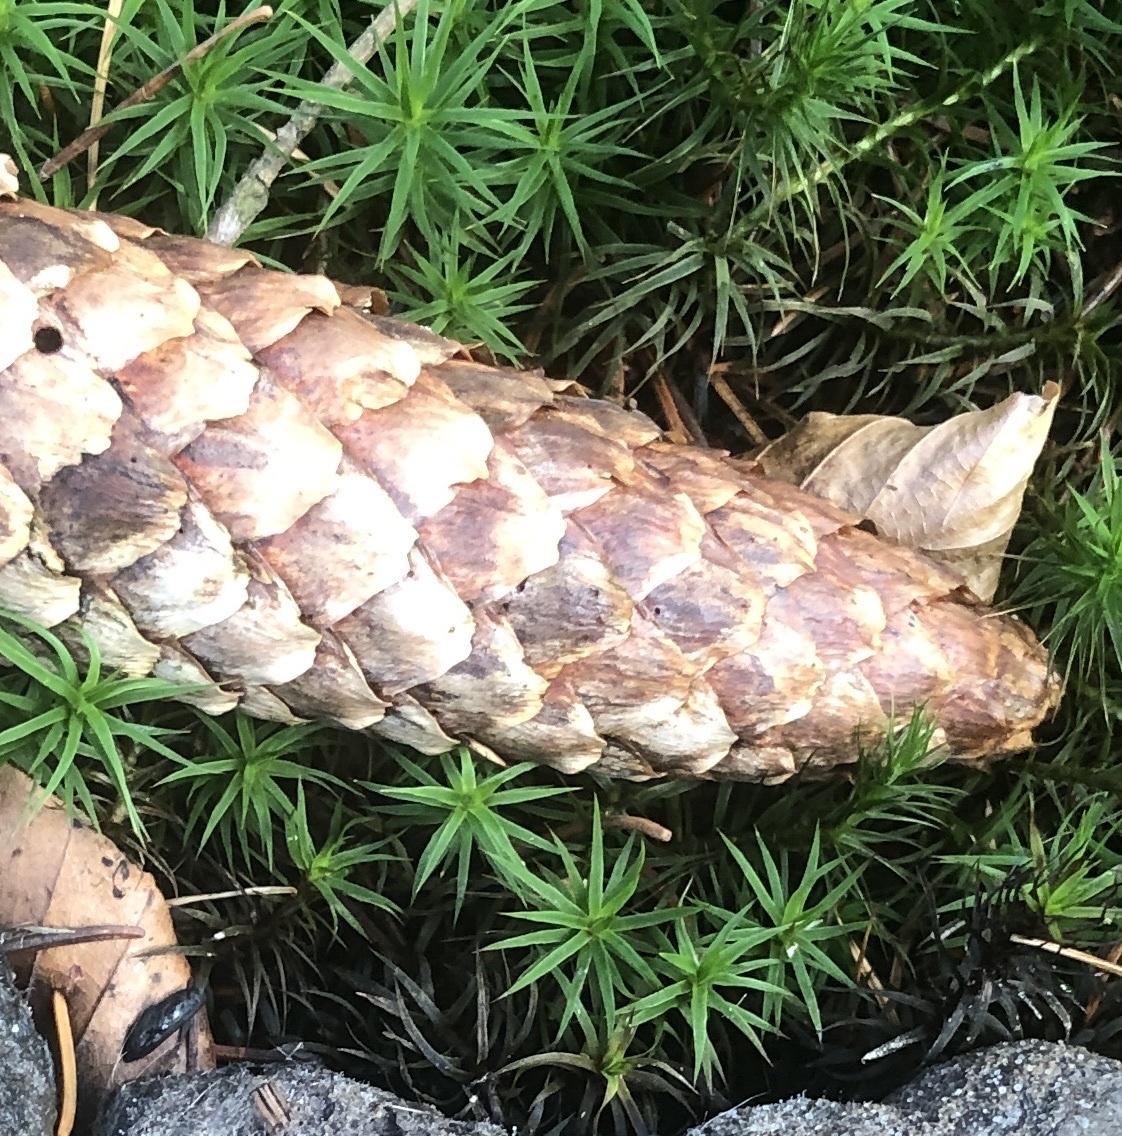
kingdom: Plantae
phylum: Tracheophyta
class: Pinopsida
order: Pinales
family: Pinaceae
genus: Picea
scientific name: Picea abies
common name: Norway spruce
